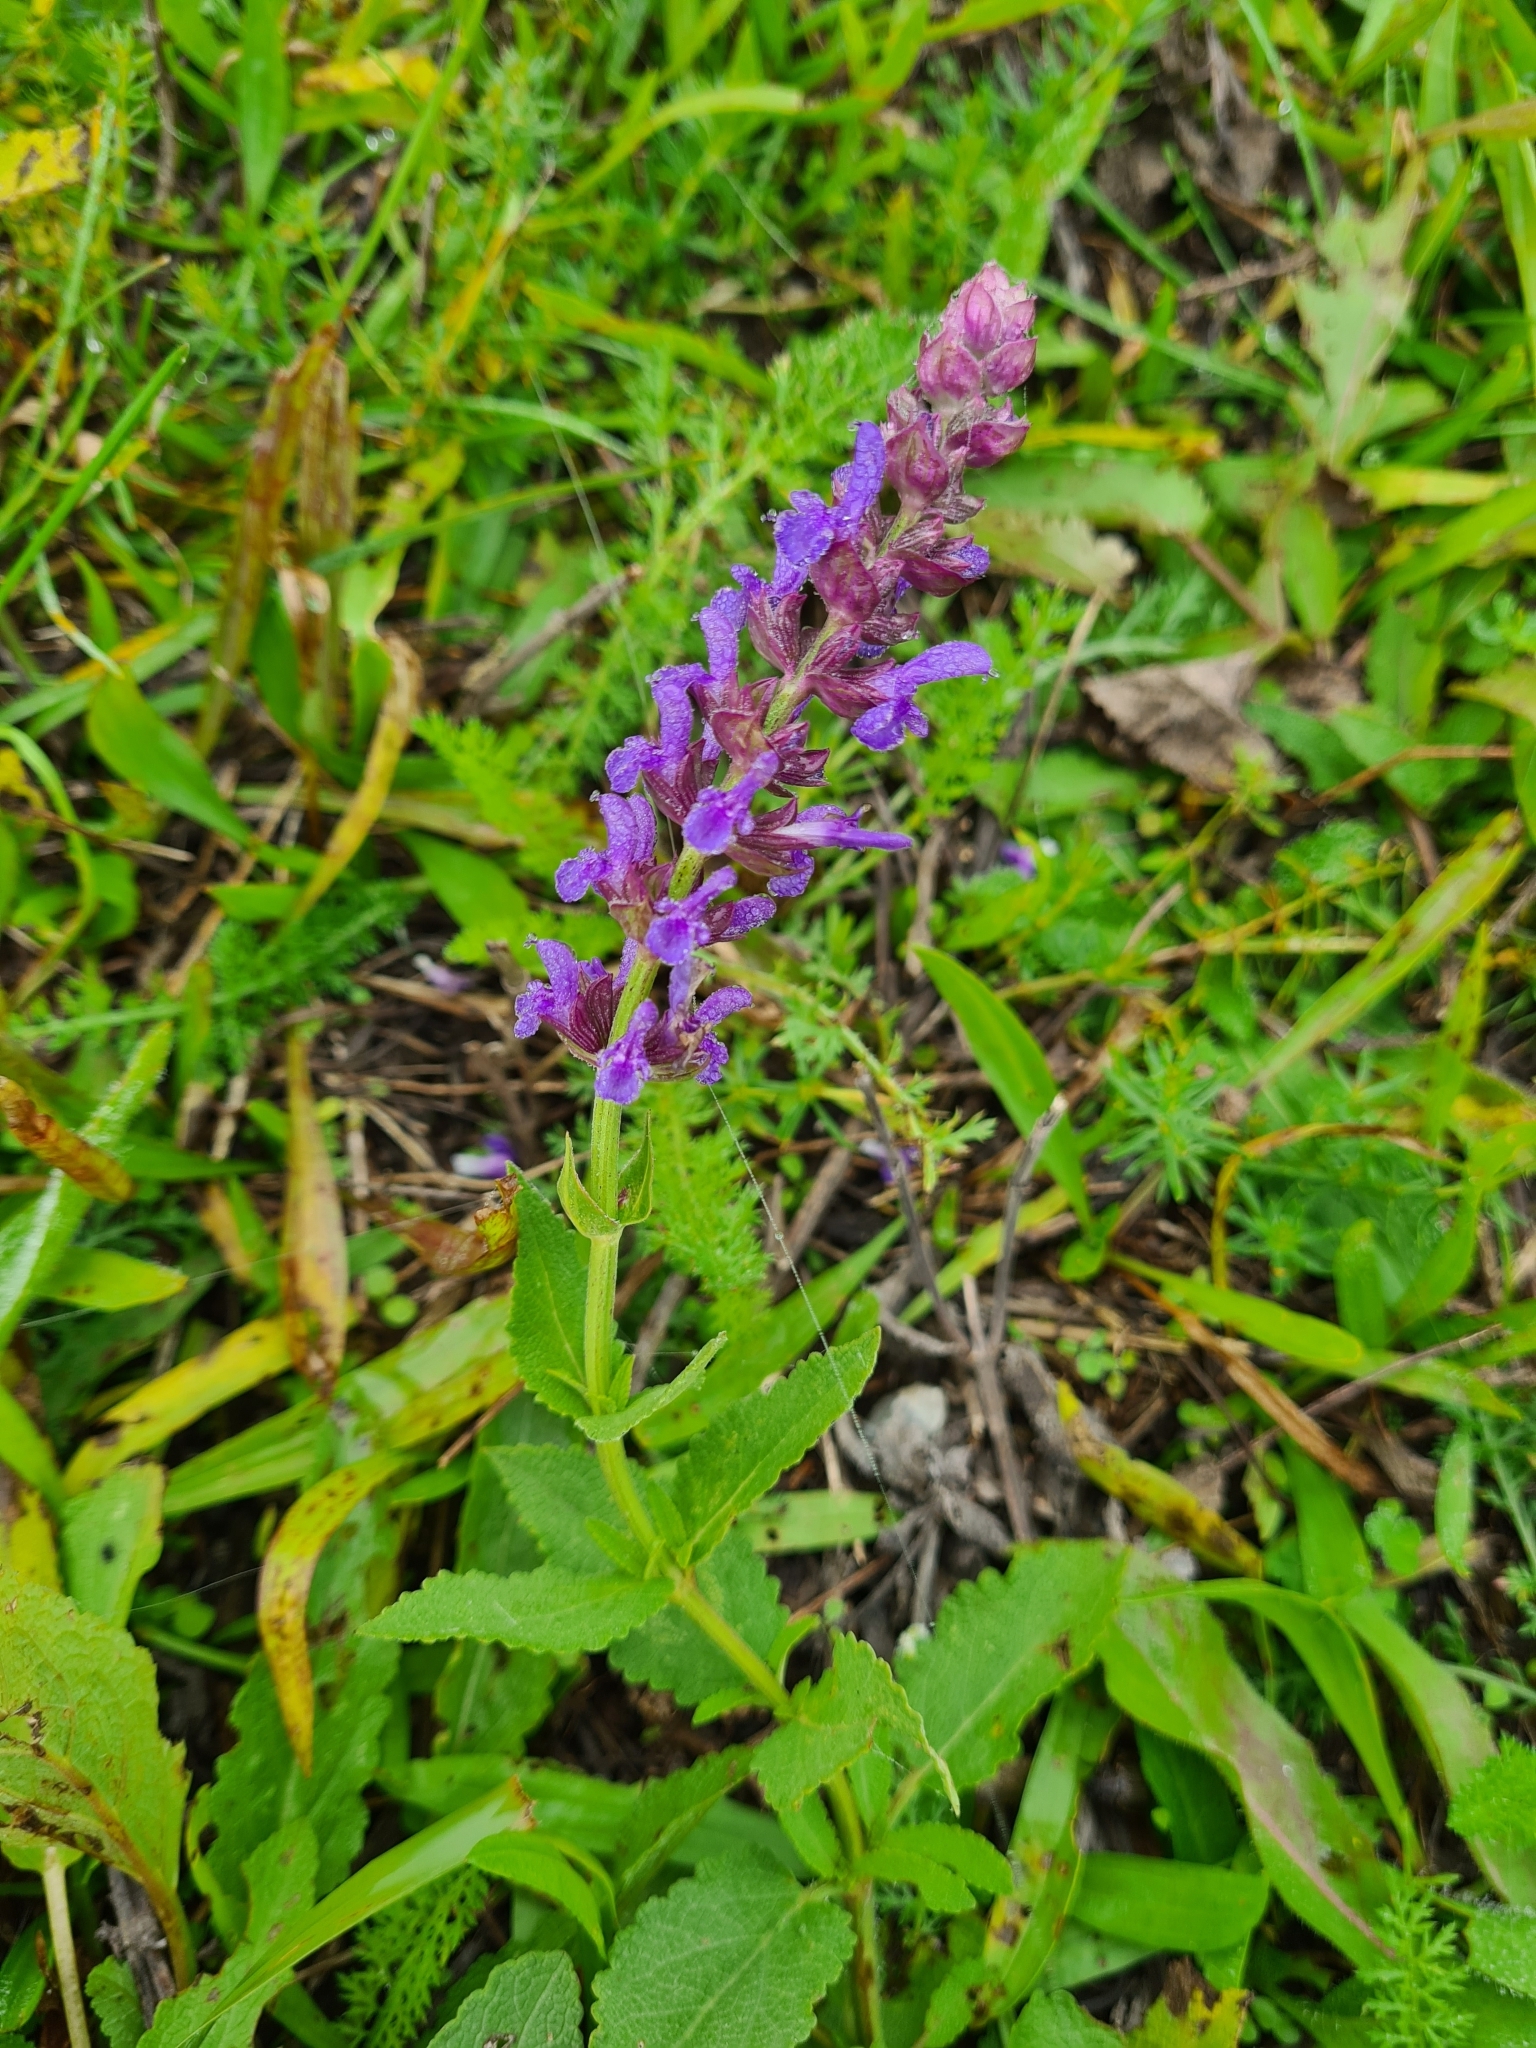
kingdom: Plantae
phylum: Tracheophyta
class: Magnoliopsida
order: Lamiales
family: Lamiaceae
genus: Salvia
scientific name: Salvia nemorosa
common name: Balkan clary
